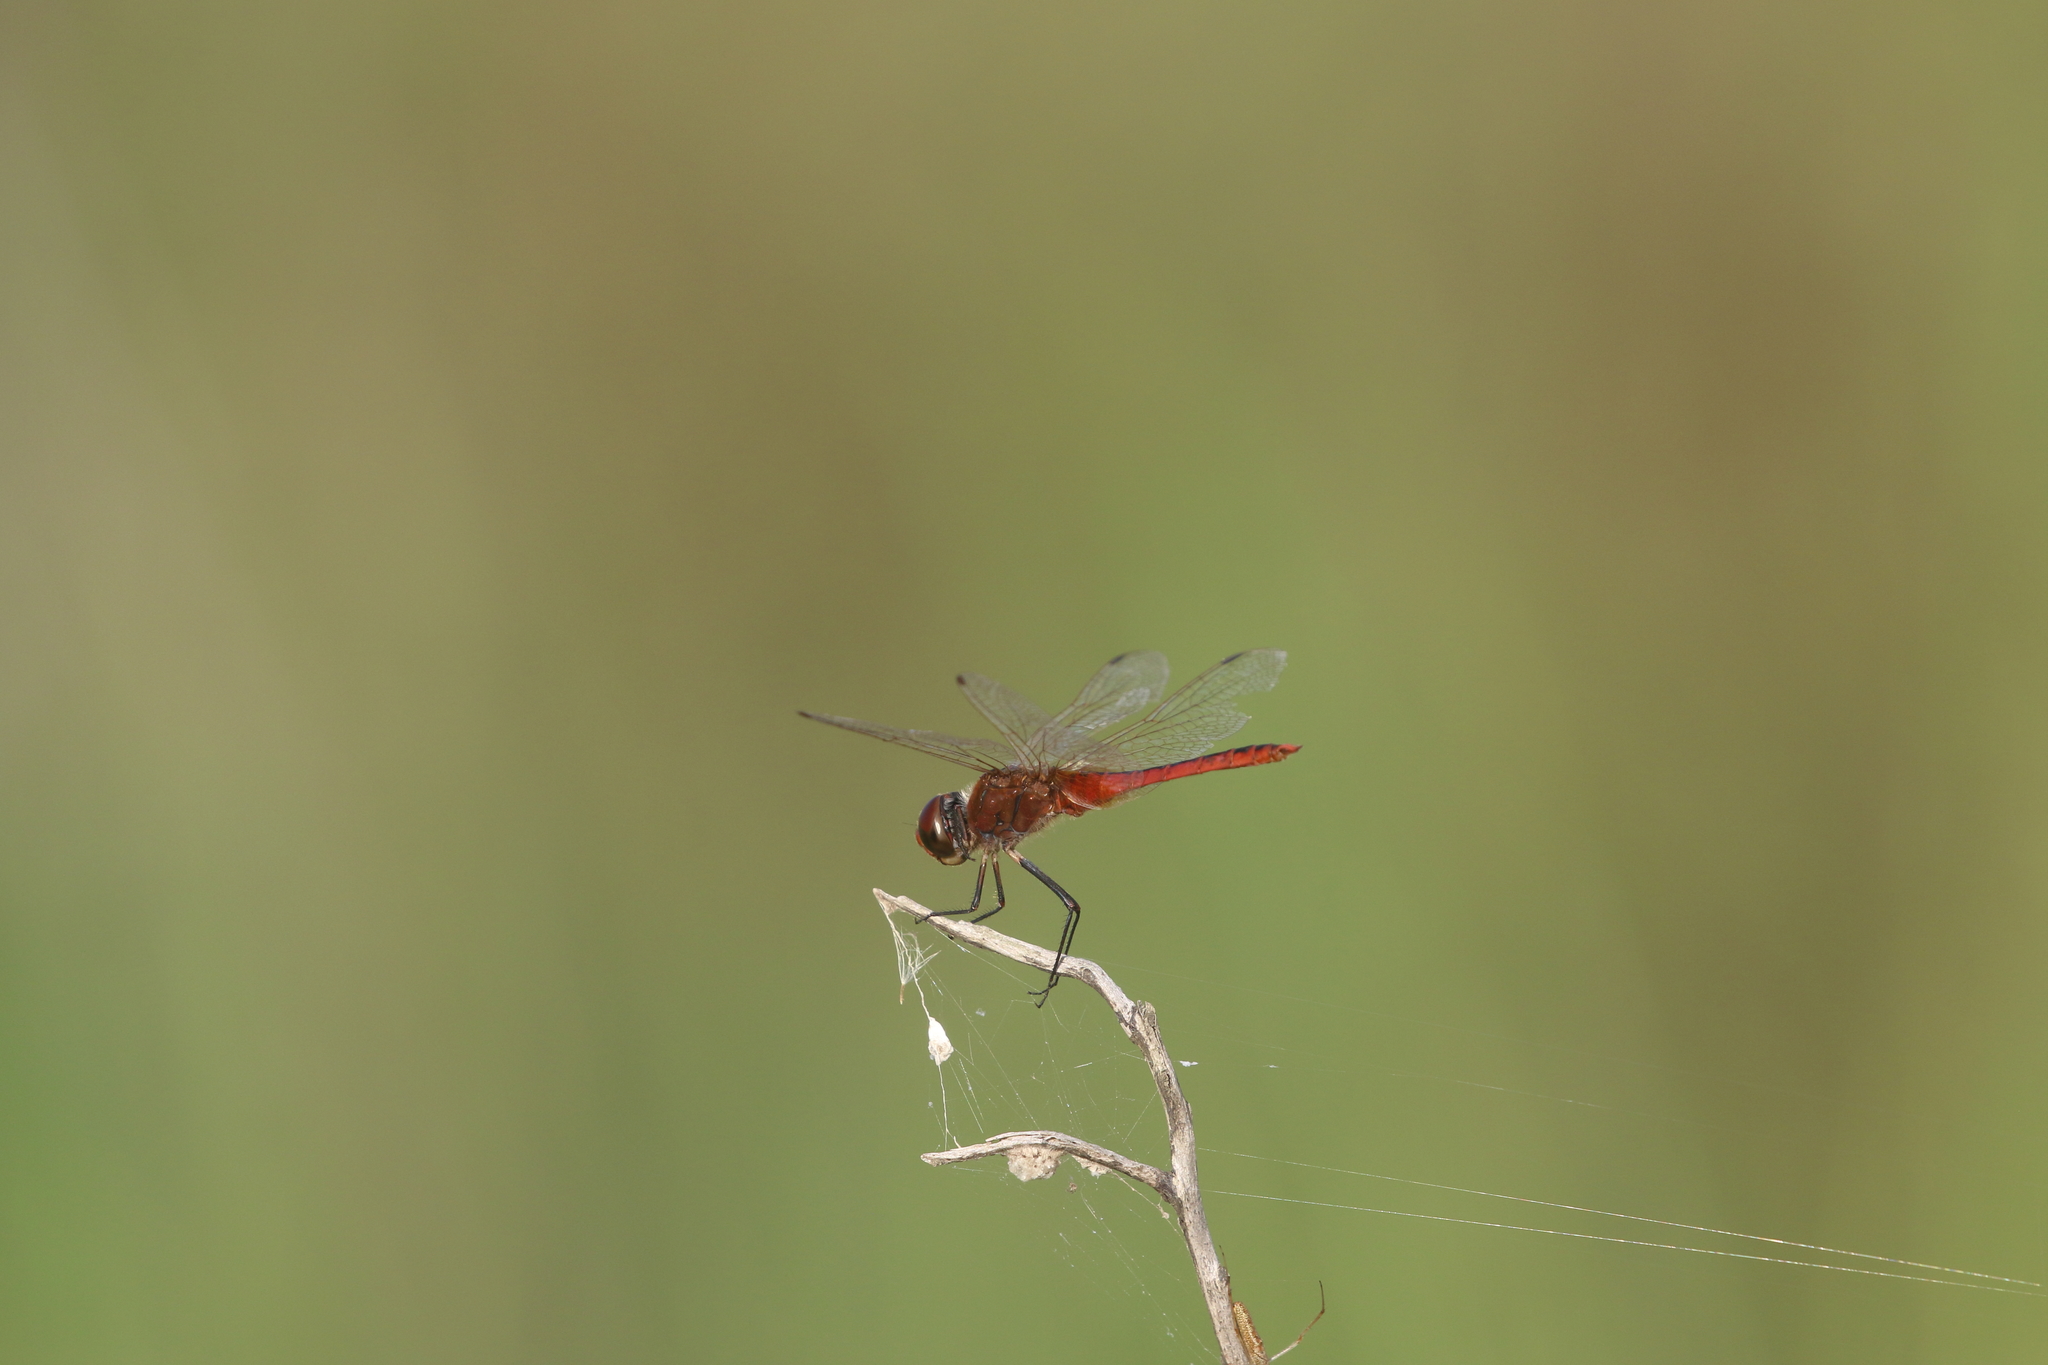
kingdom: Animalia
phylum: Arthropoda
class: Insecta
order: Odonata
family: Libellulidae
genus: Macrodiplax
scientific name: Macrodiplax cora
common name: Coastal glider
